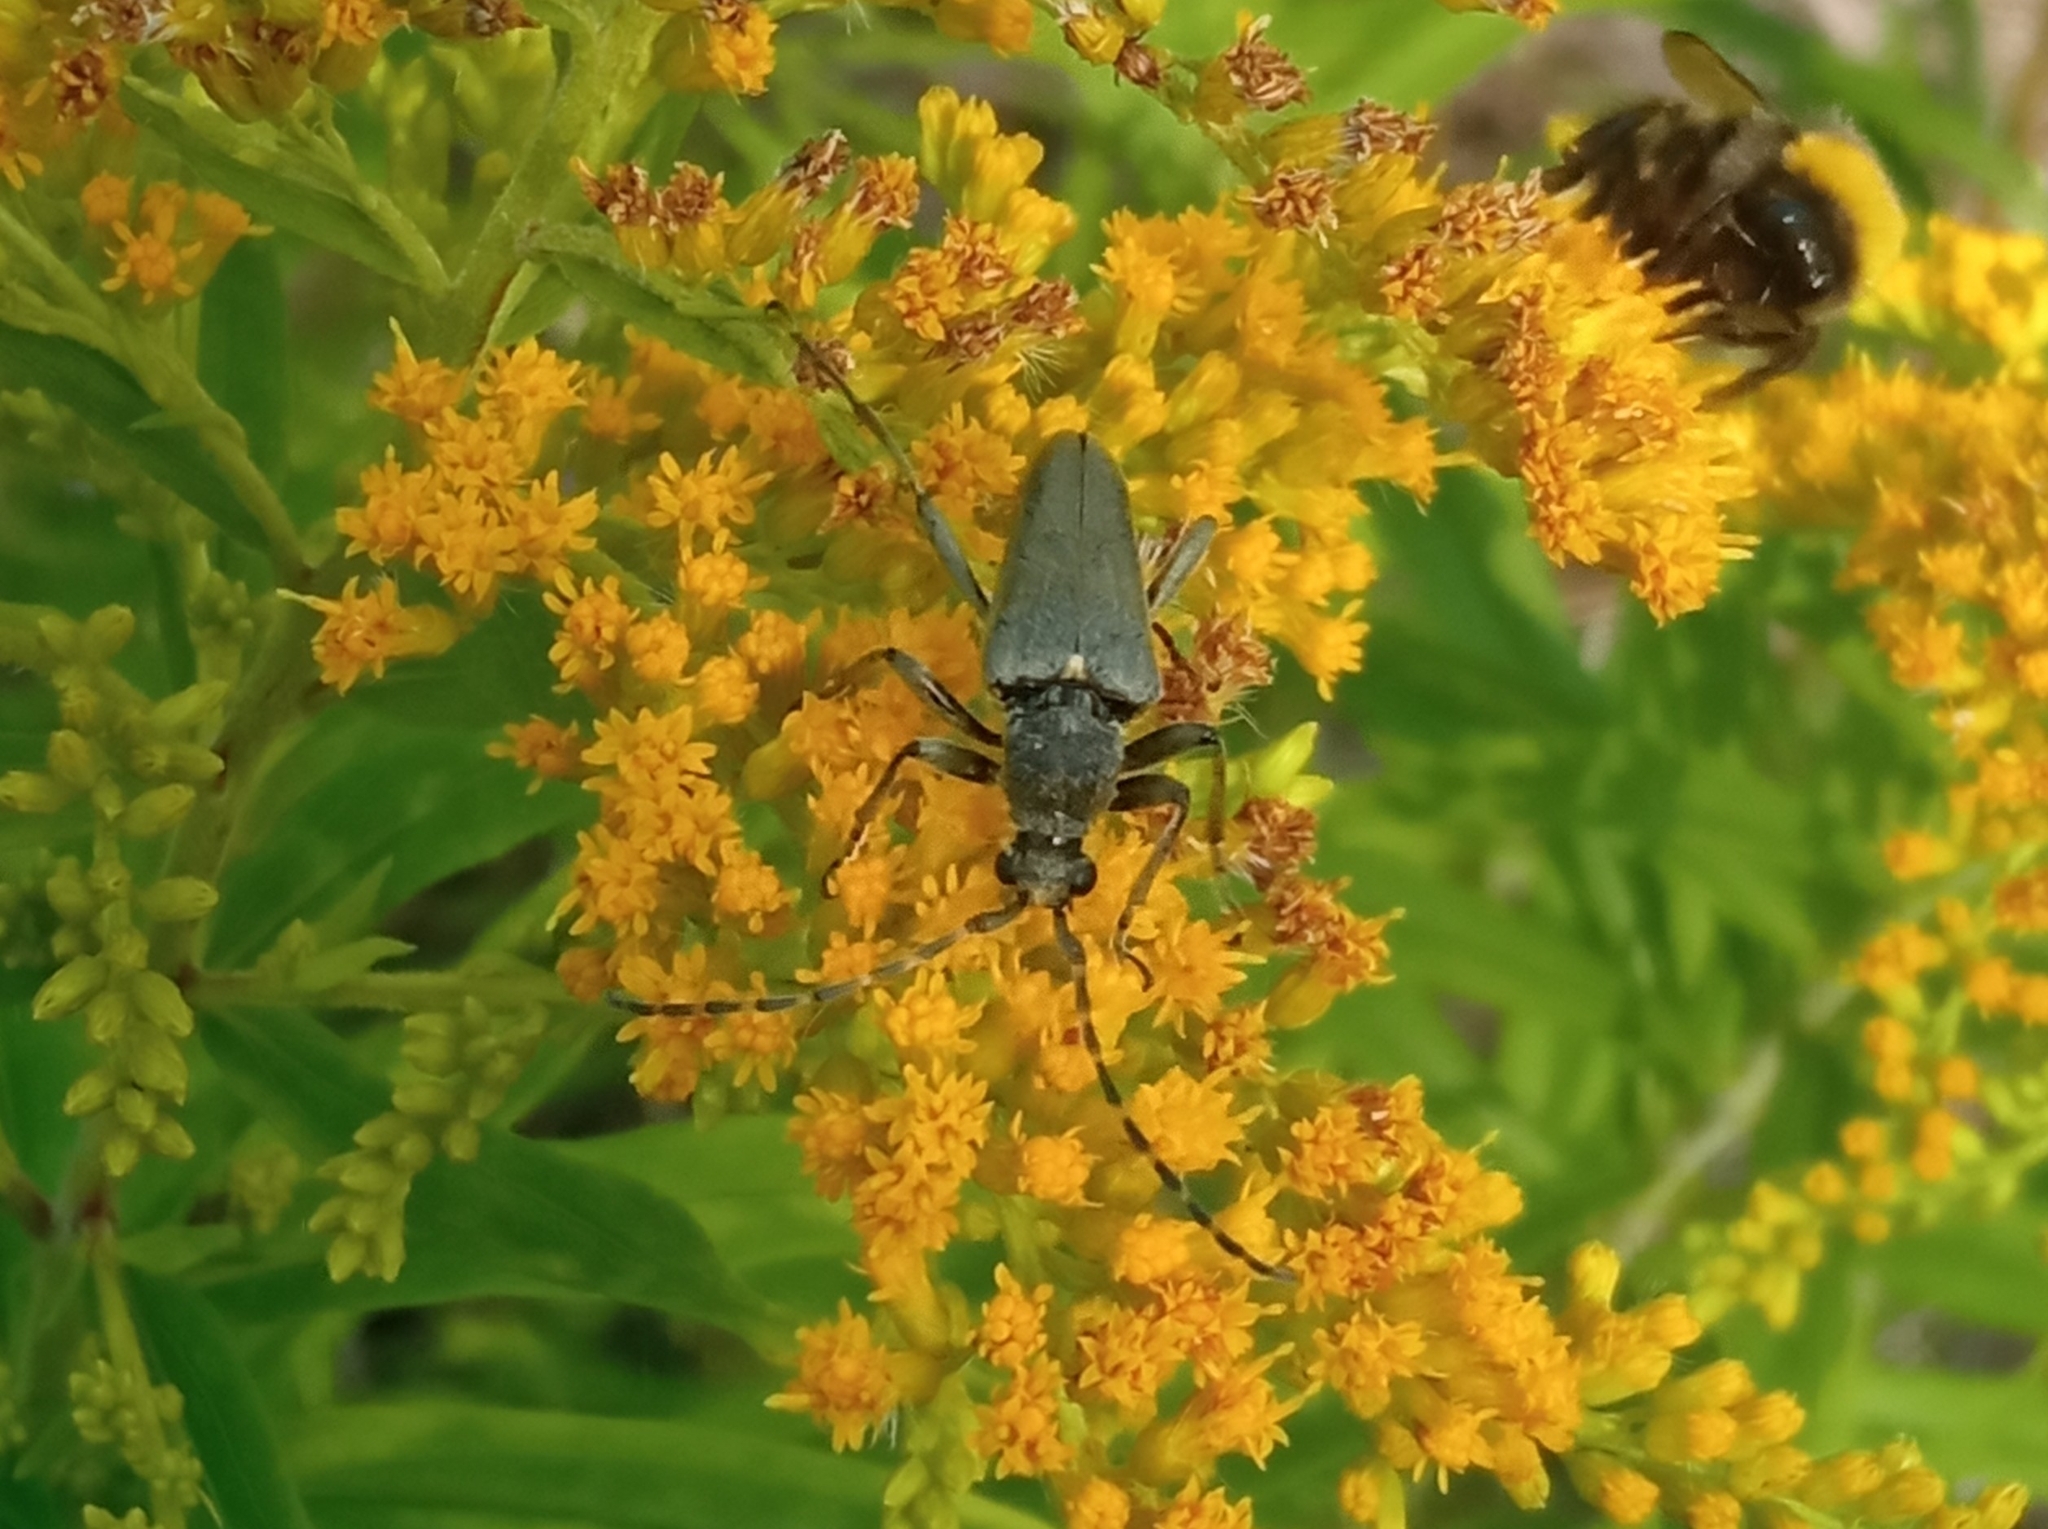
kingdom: Animalia
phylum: Arthropoda
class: Insecta
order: Coleoptera
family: Cerambycidae
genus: Lepturobosca
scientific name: Lepturobosca virens
